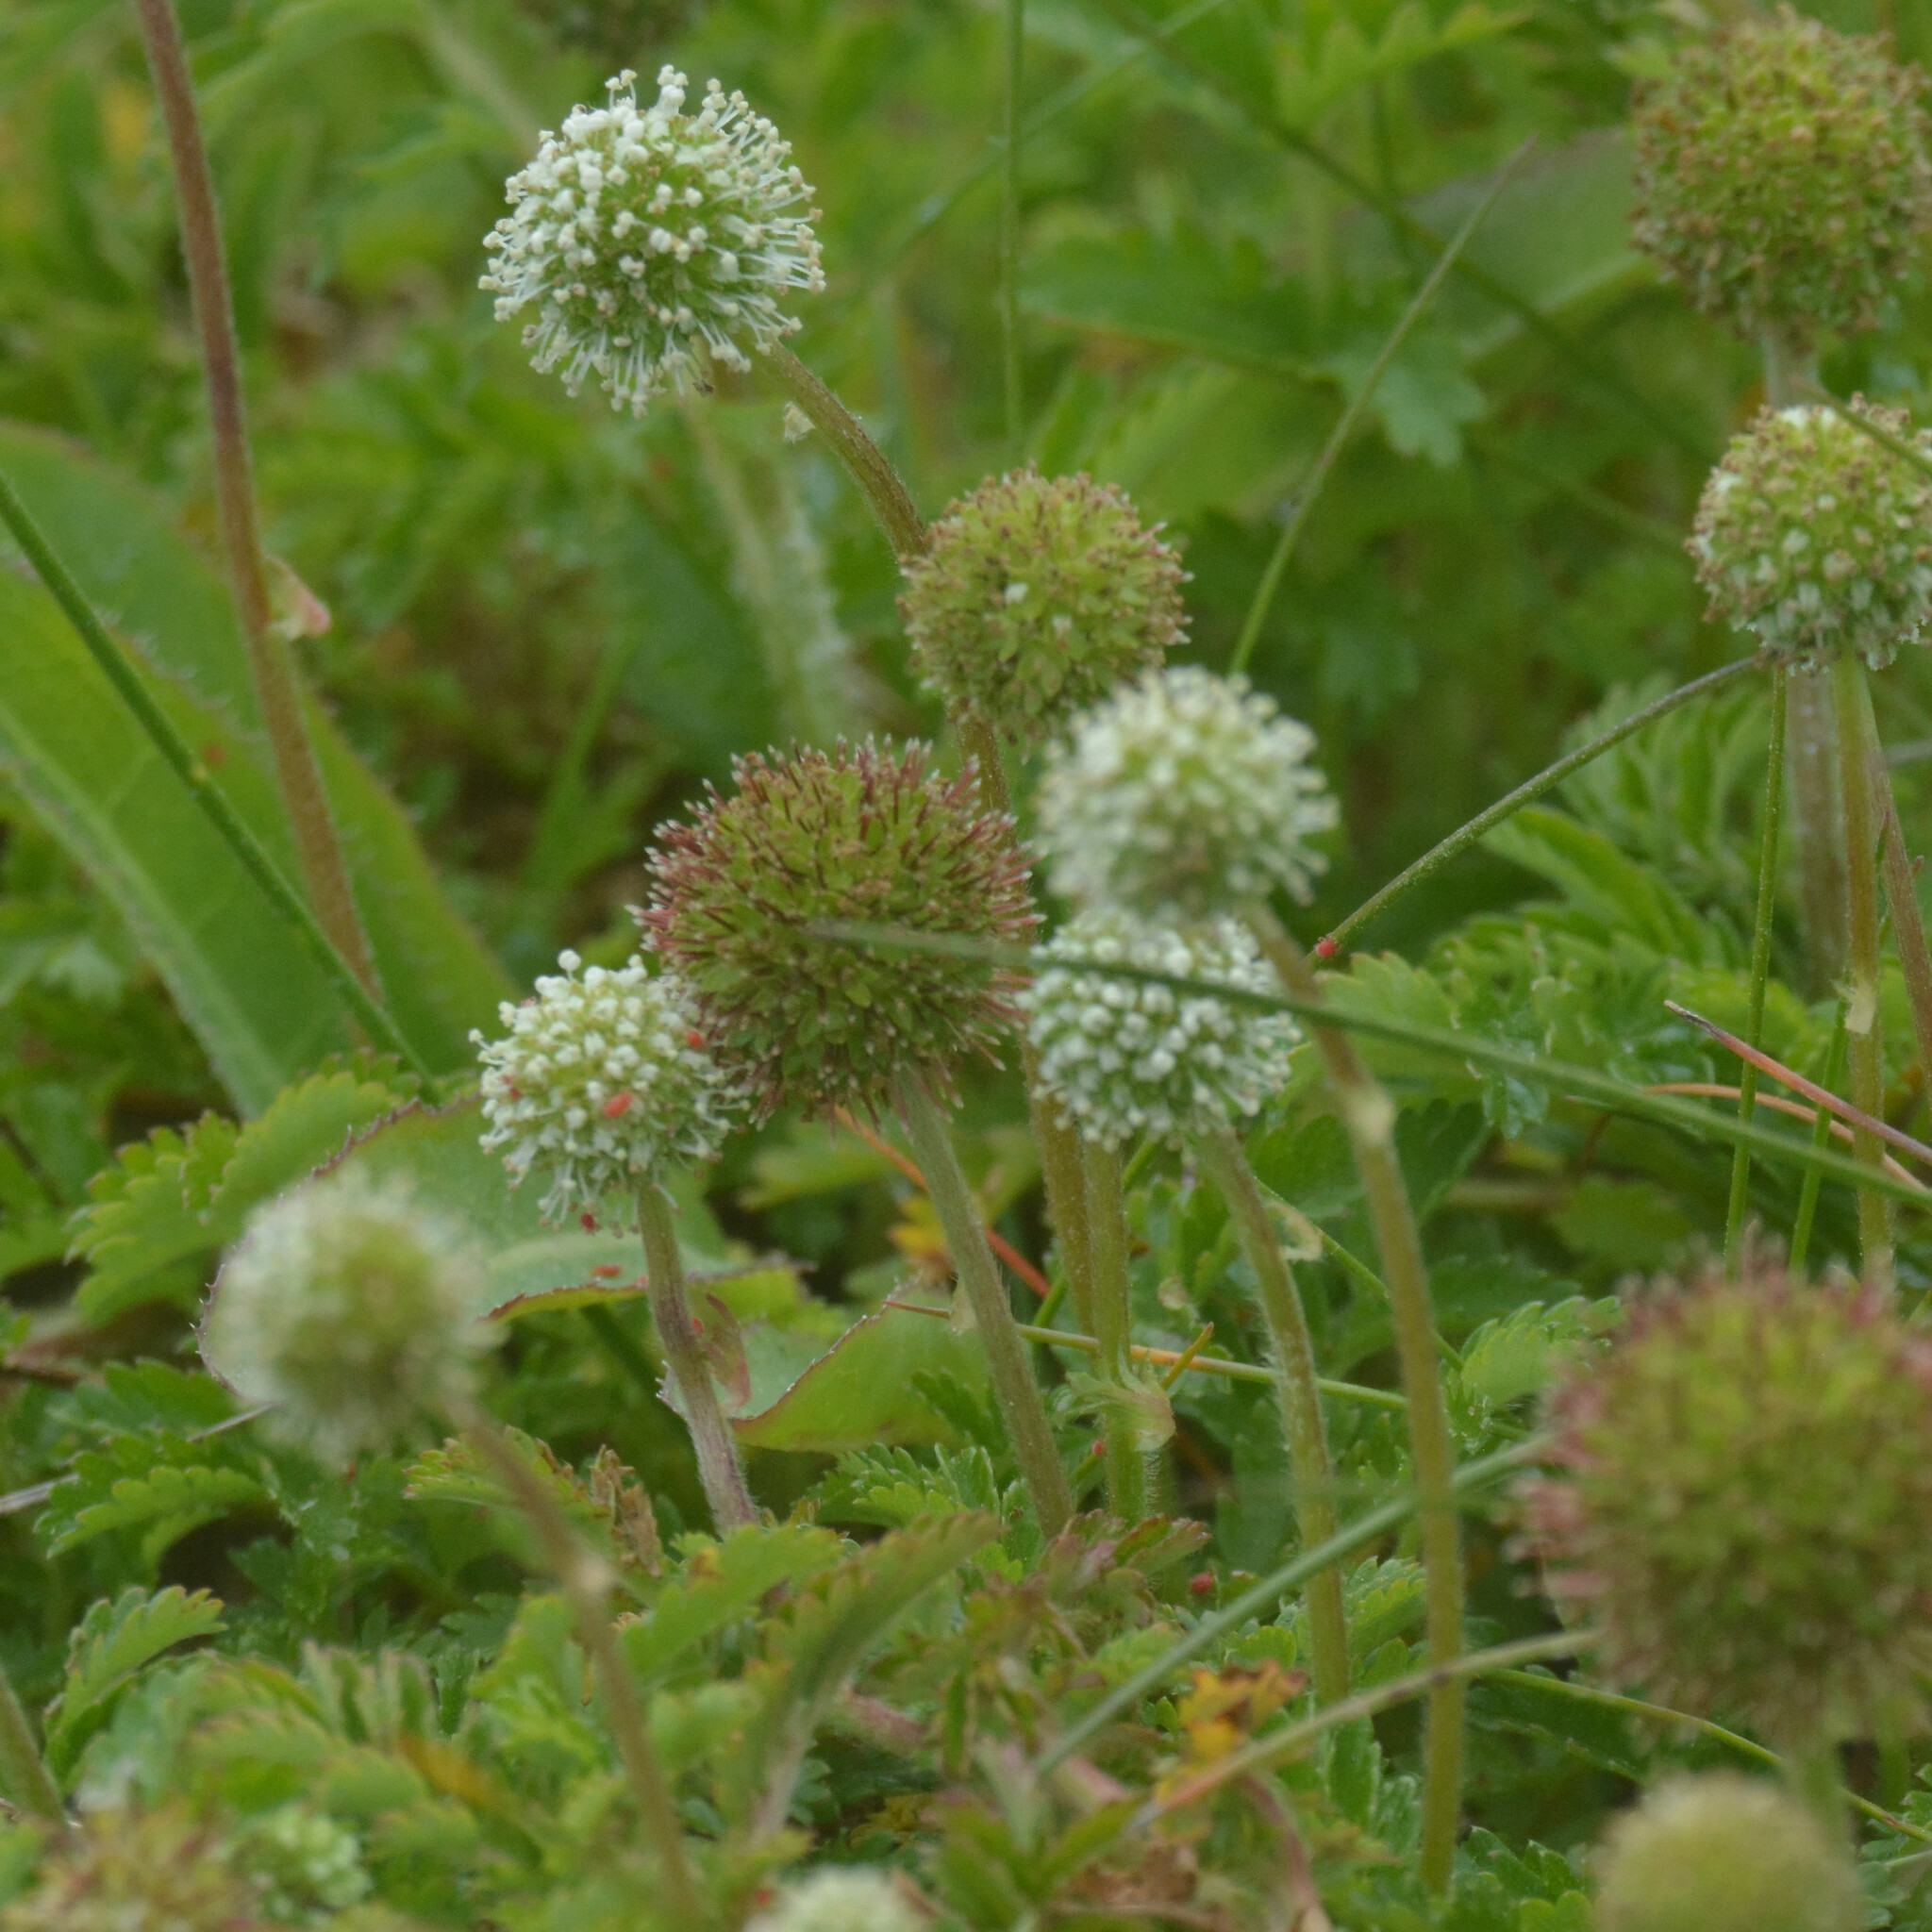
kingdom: Plantae
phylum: Tracheophyta
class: Magnoliopsida
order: Rosales
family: Rosaceae
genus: Acaena
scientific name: Acaena novae-zelandiae
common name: Pirri-pirri-bur
